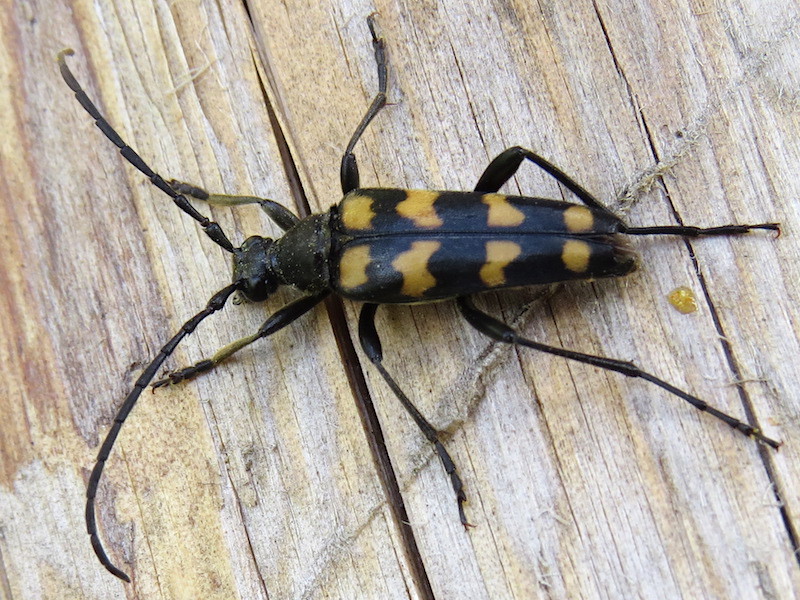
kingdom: Animalia
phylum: Arthropoda
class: Insecta
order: Coleoptera
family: Cerambycidae
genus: Leptura
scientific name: Leptura quadrifasciata
